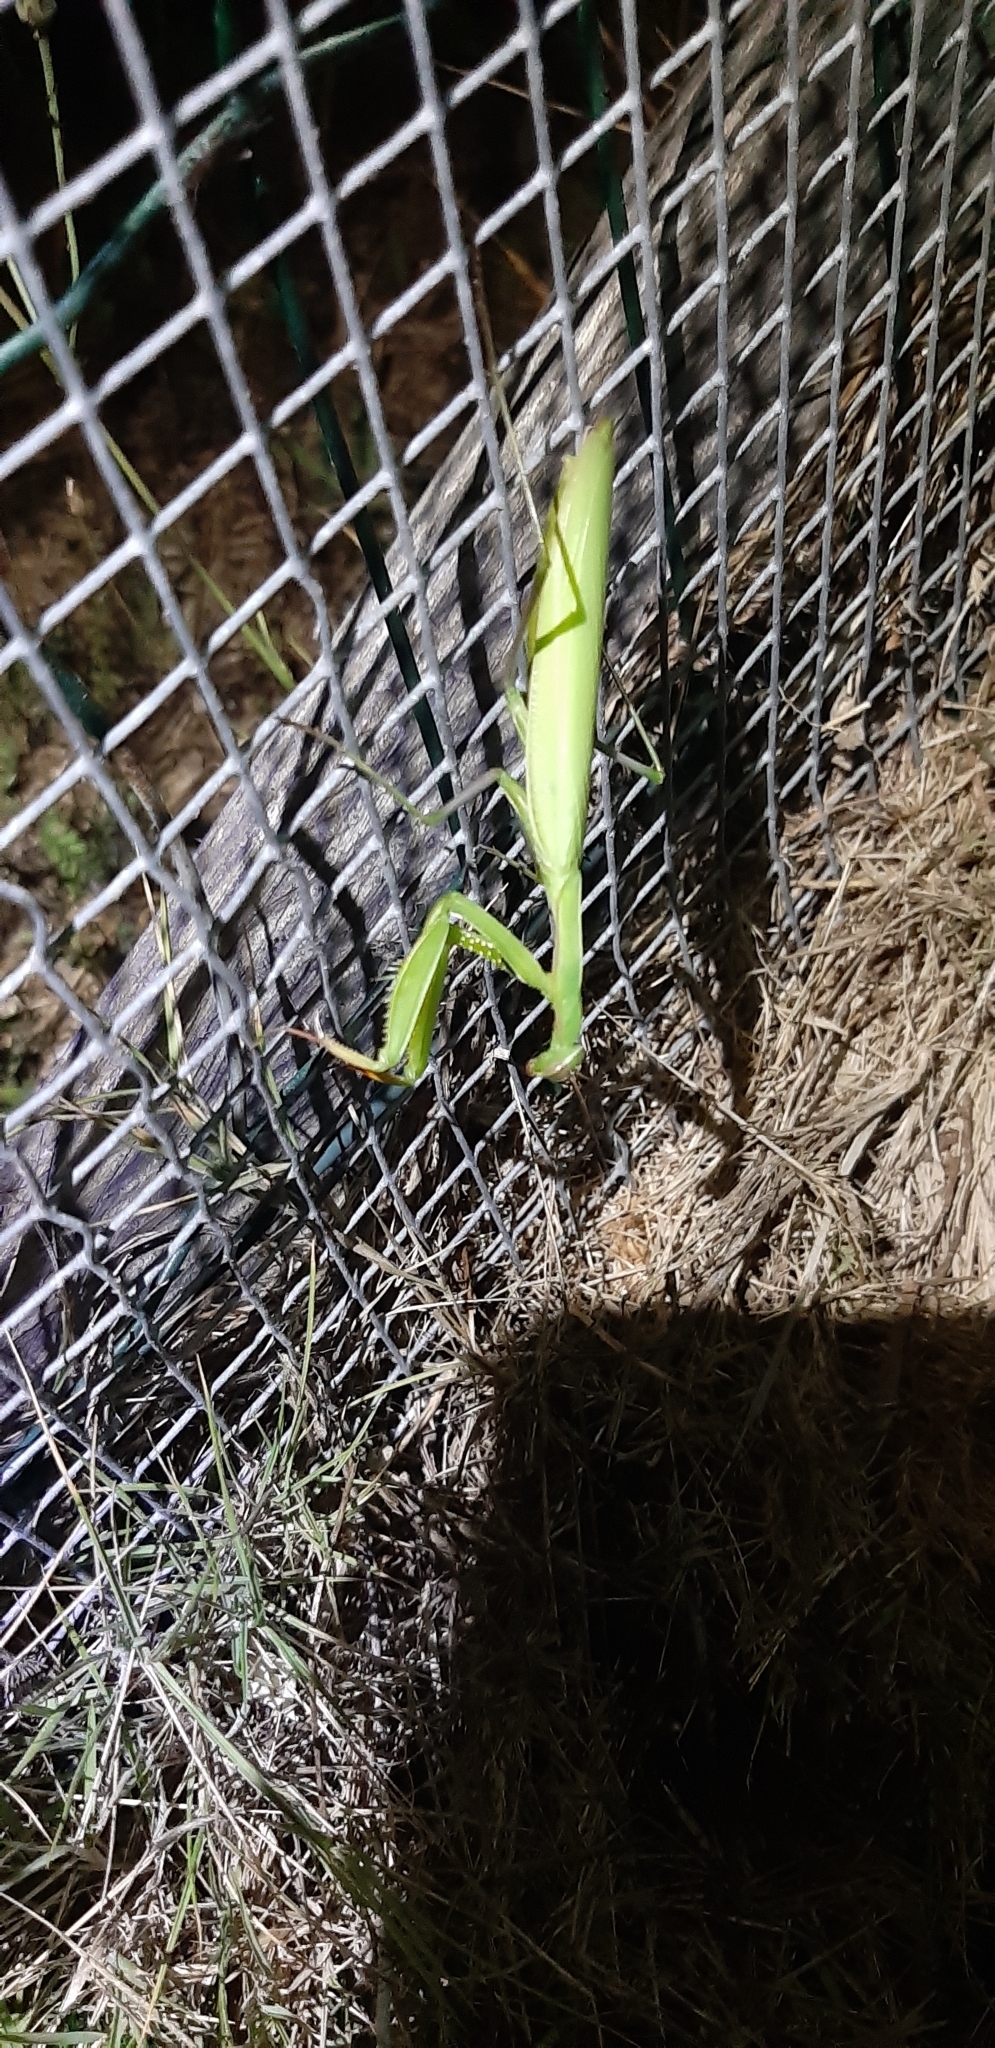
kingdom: Animalia
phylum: Arthropoda
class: Insecta
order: Mantodea
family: Mantidae
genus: Mantis
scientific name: Mantis religiosa
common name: Praying mantis
